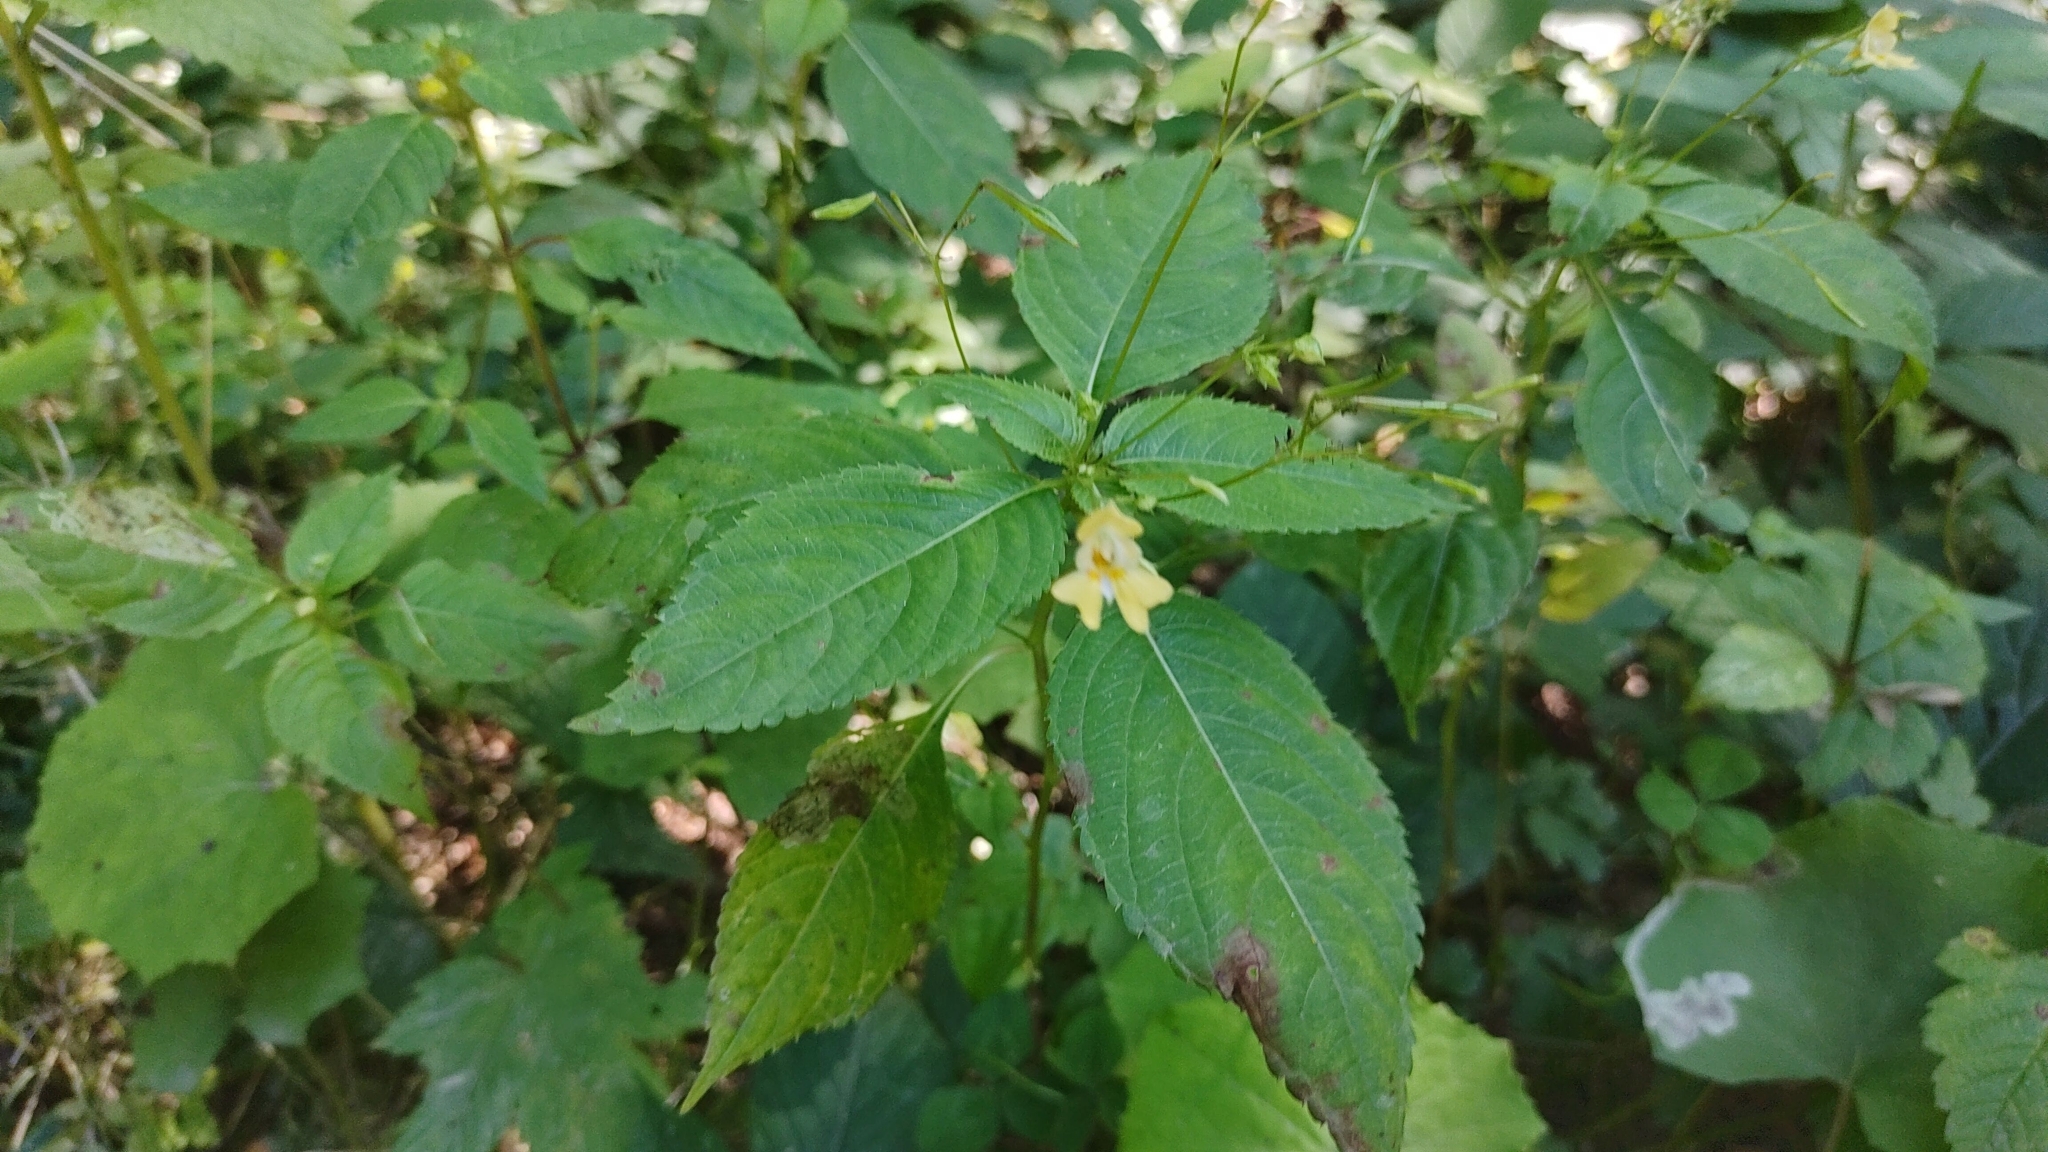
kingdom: Plantae
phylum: Tracheophyta
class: Magnoliopsida
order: Ericales
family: Balsaminaceae
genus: Impatiens
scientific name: Impatiens parviflora
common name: Small balsam
